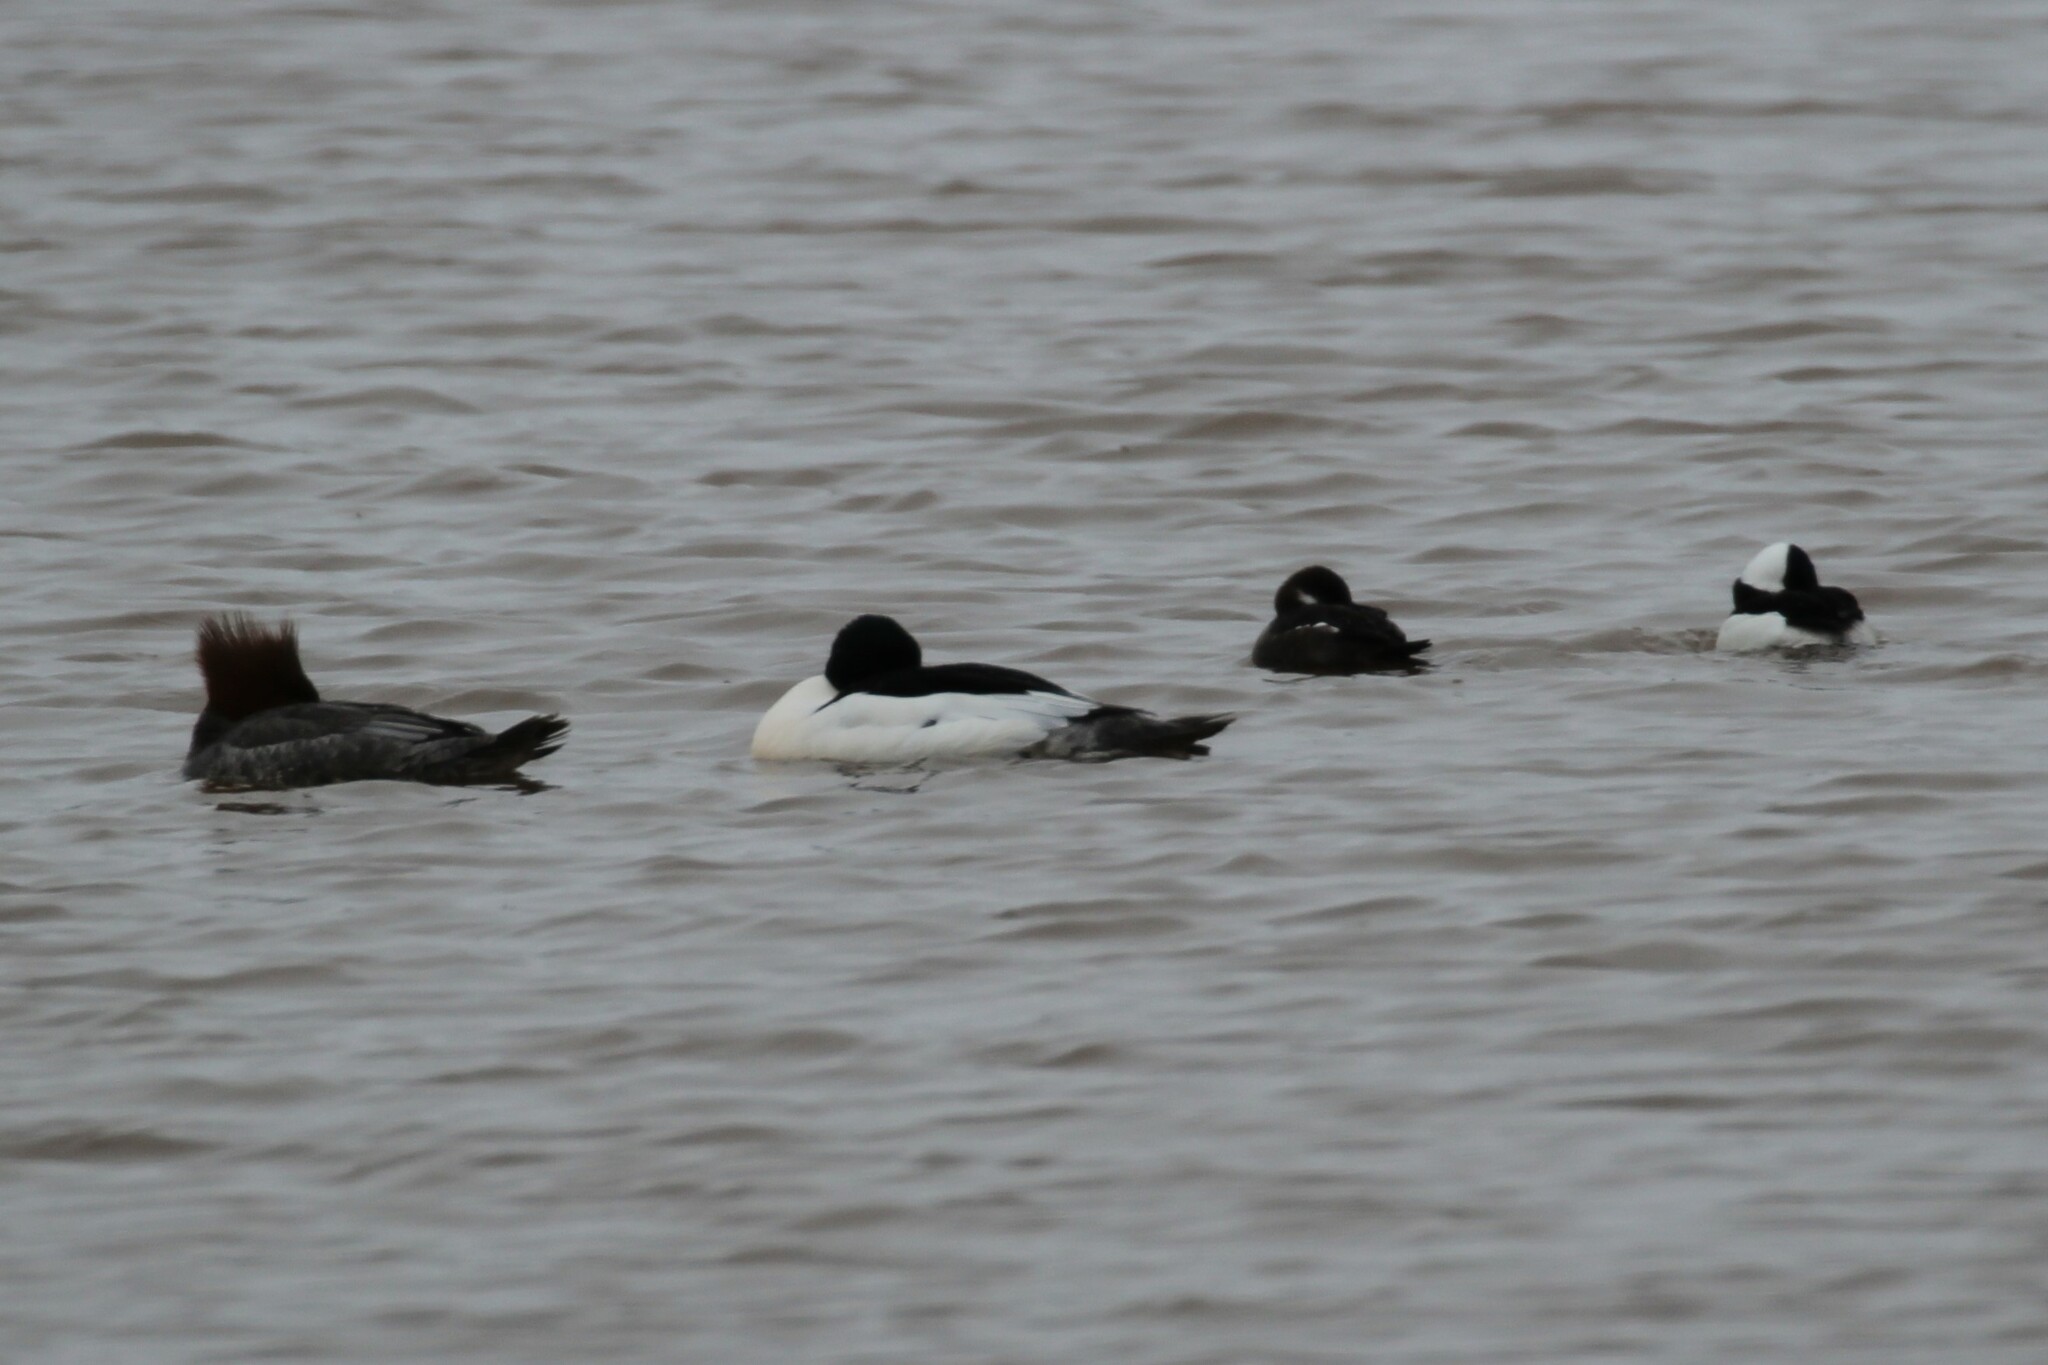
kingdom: Animalia
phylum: Chordata
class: Aves
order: Anseriformes
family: Anatidae
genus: Mergus
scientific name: Mergus merganser
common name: Common merganser
